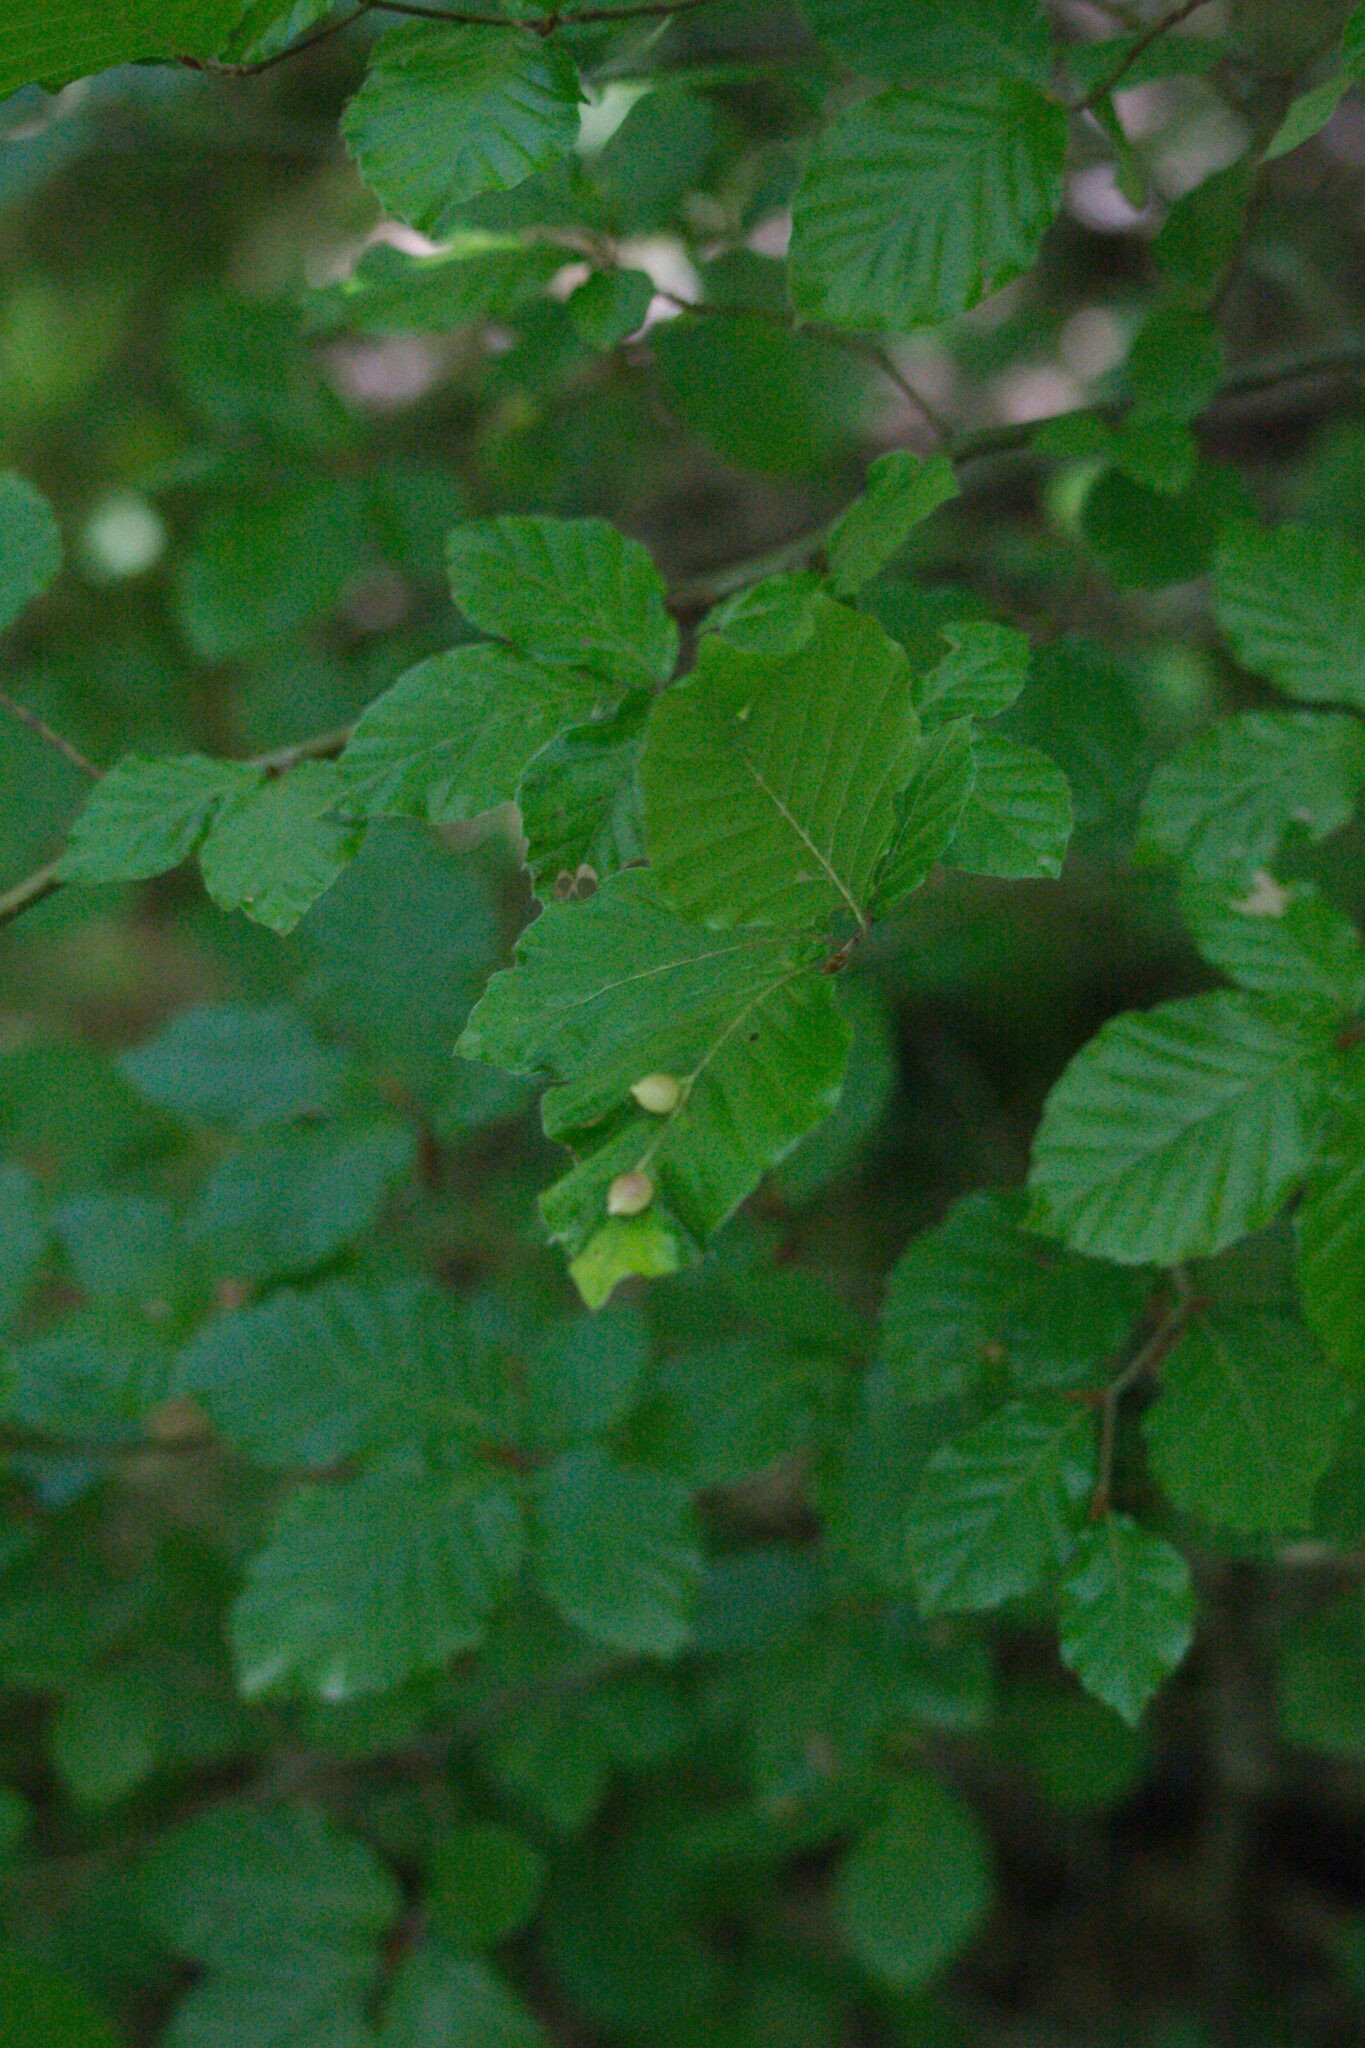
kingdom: Animalia
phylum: Arthropoda
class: Insecta
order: Diptera
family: Cecidomyiidae
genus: Mikiola
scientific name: Mikiola fagi
